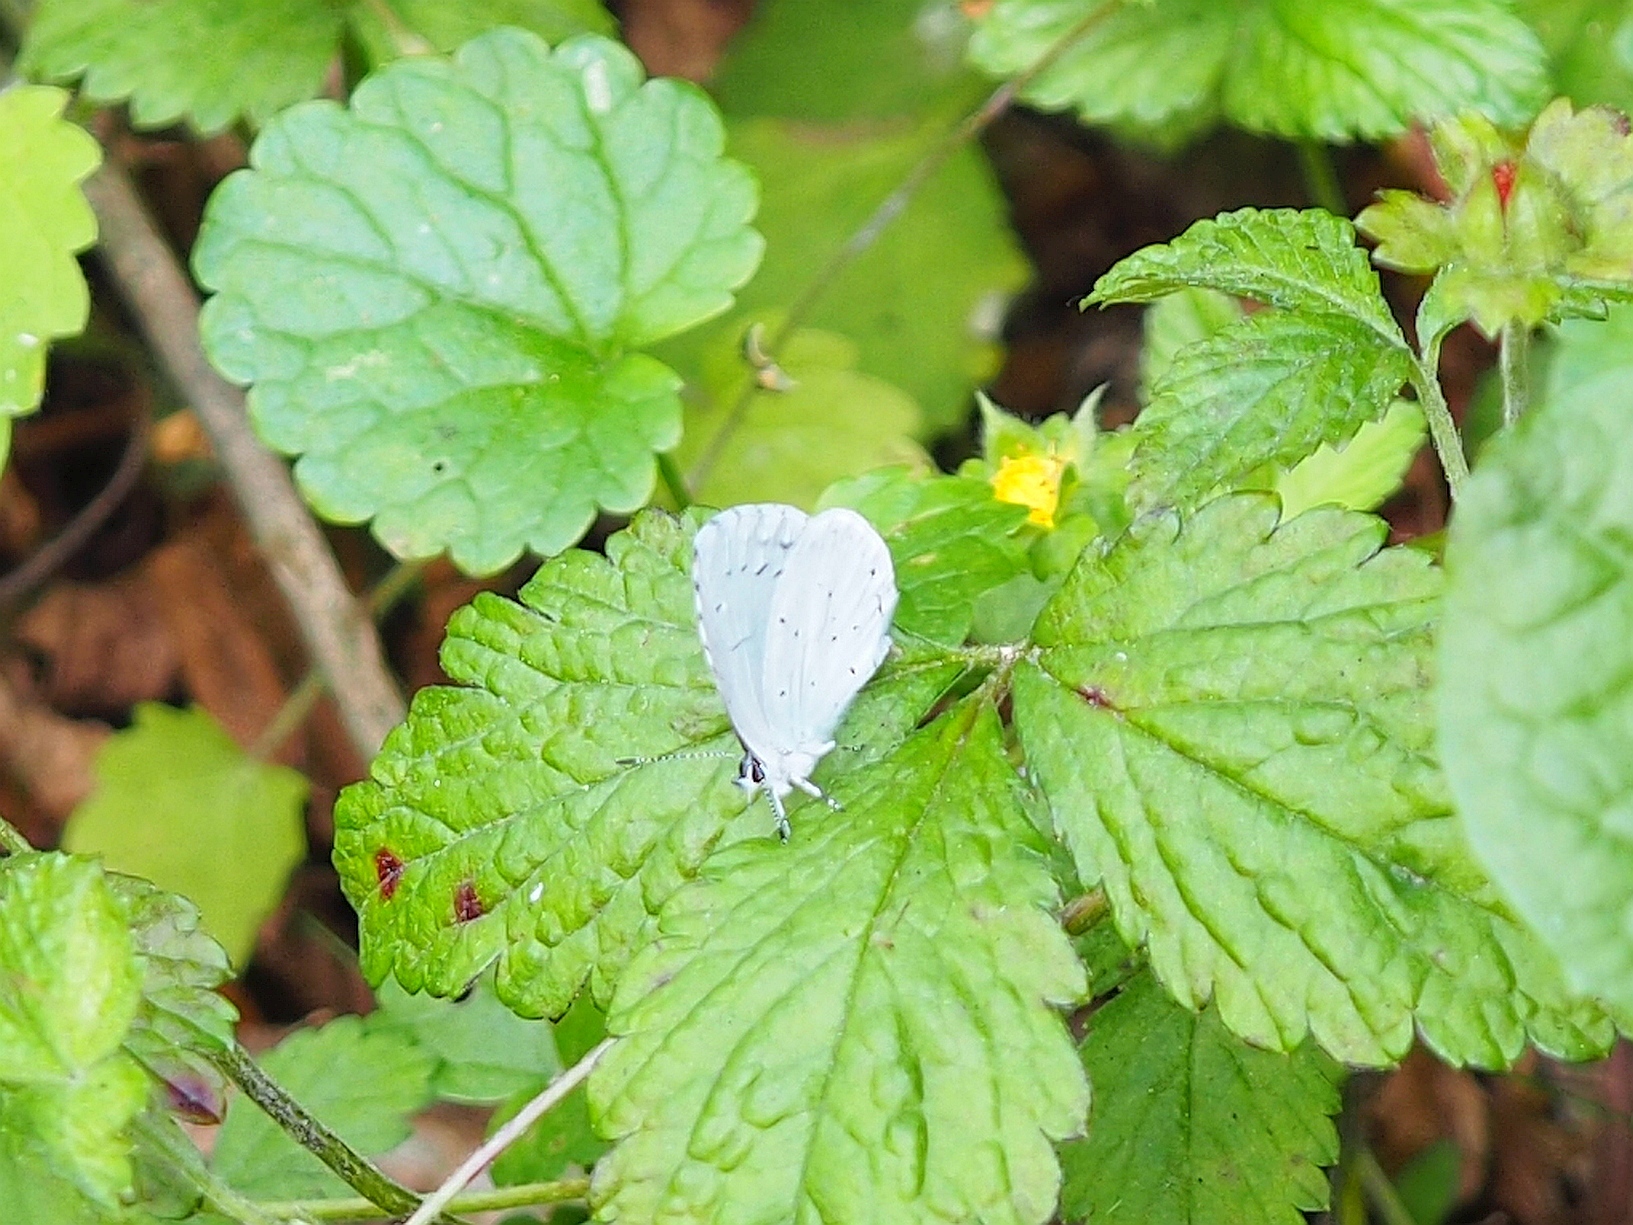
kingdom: Animalia
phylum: Arthropoda
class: Insecta
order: Lepidoptera
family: Lycaenidae
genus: Celastrina
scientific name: Celastrina argiolus
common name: Holly blue
